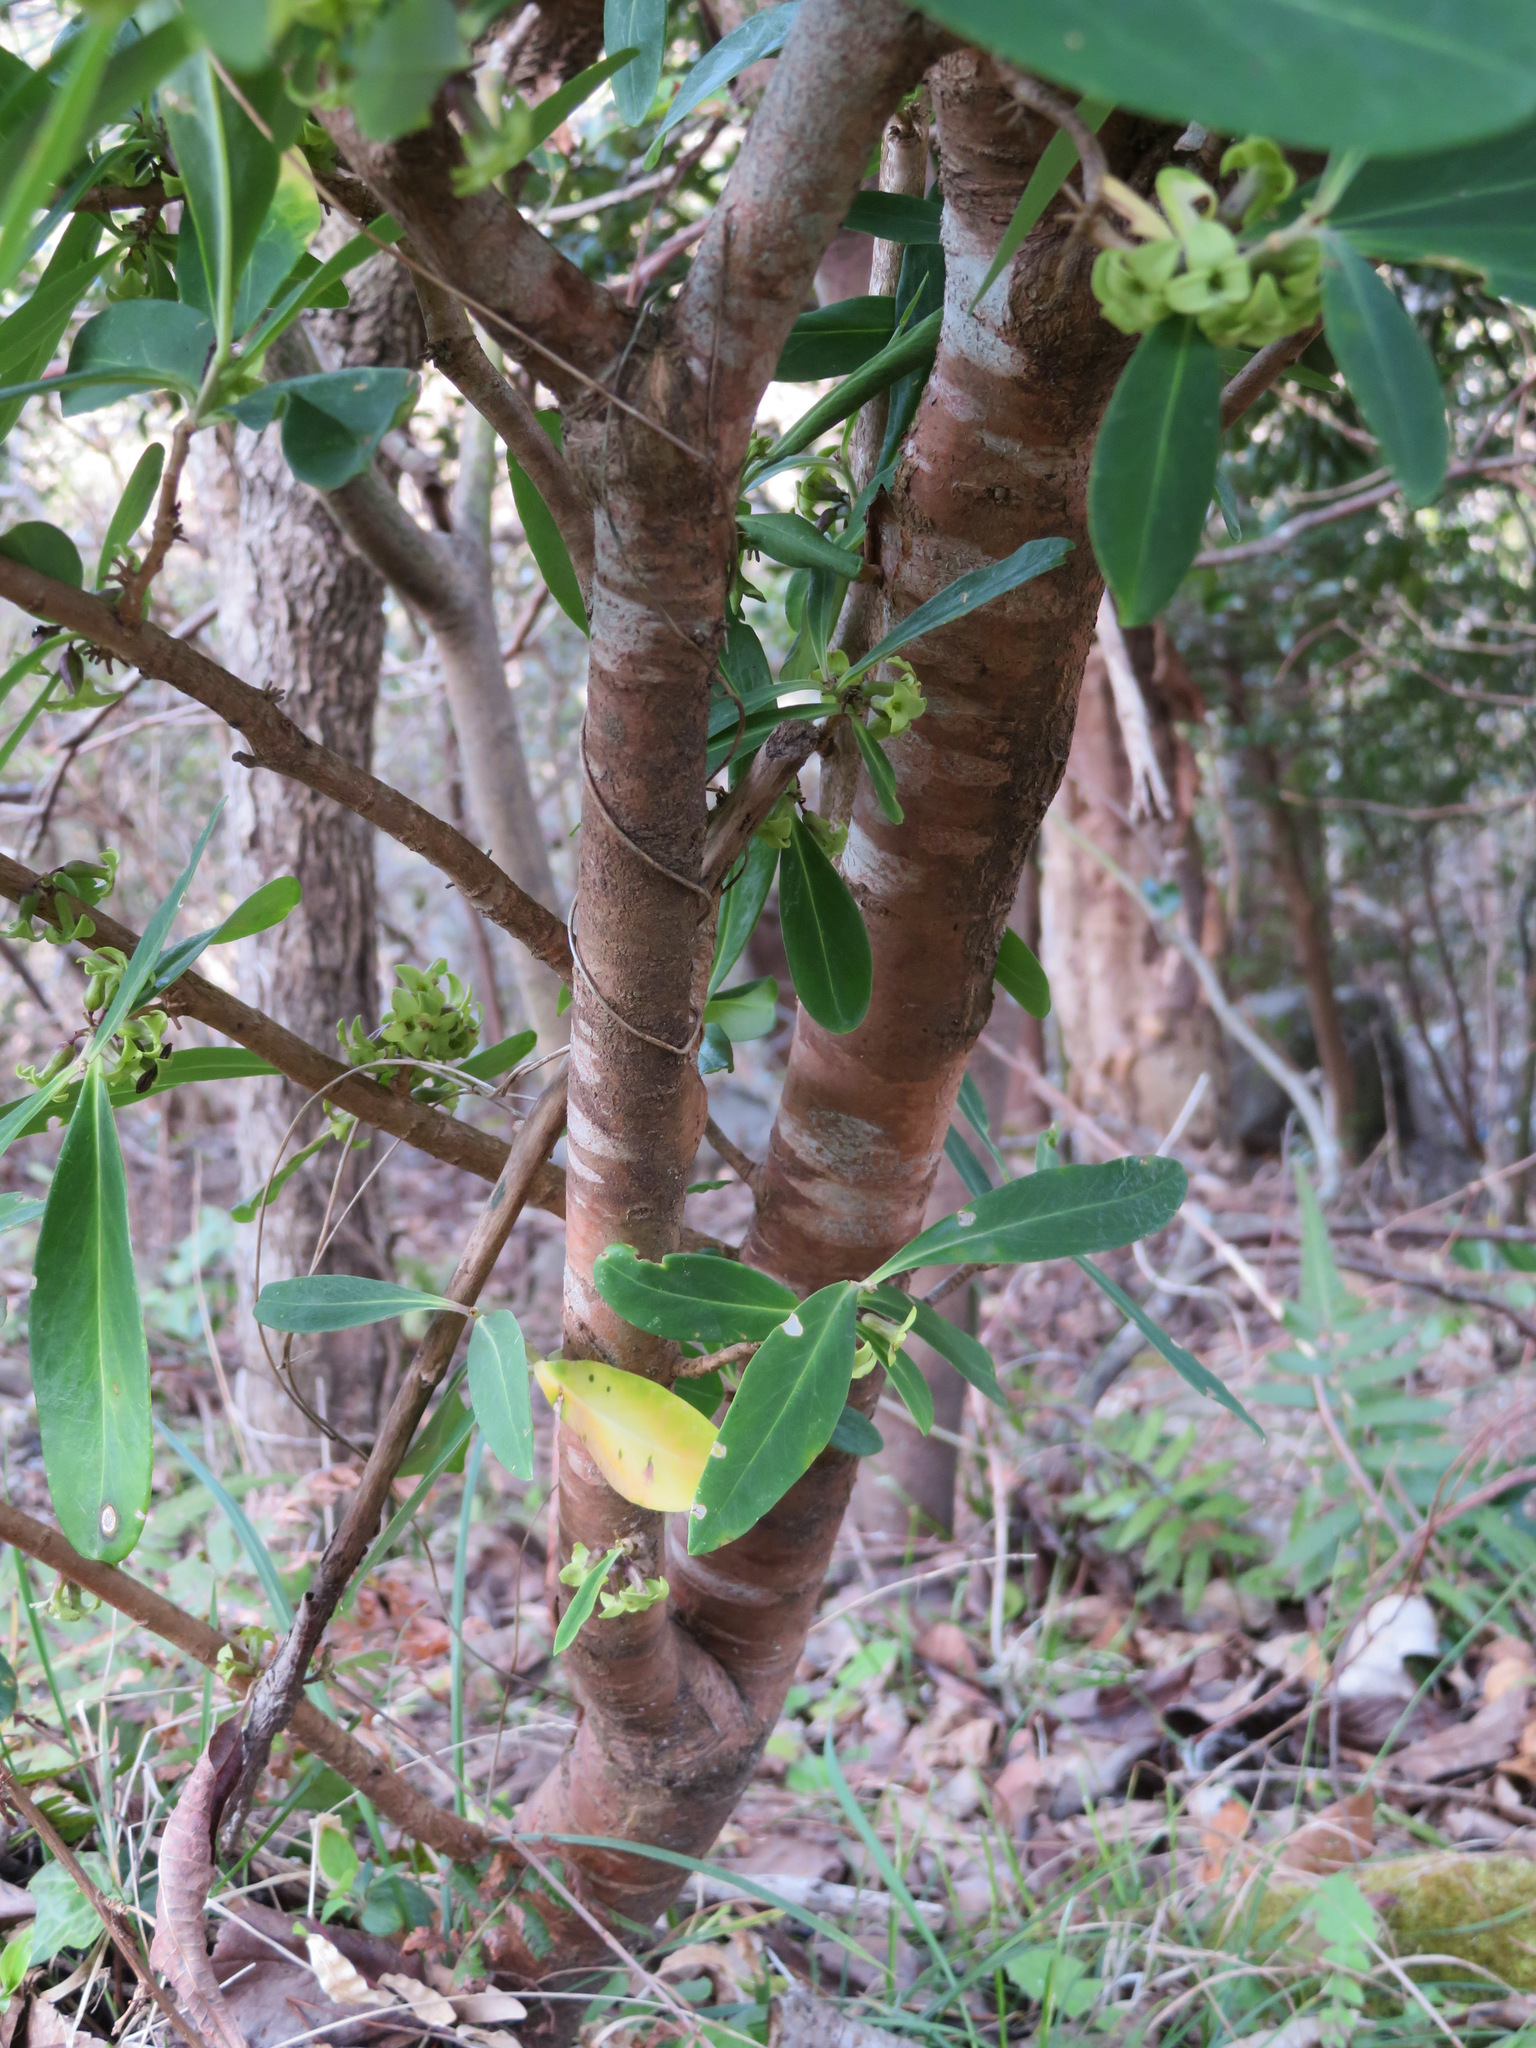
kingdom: Plantae
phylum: Tracheophyta
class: Magnoliopsida
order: Malvales
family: Thymelaeaceae
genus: Daphne
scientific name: Daphne pseudomezereum
